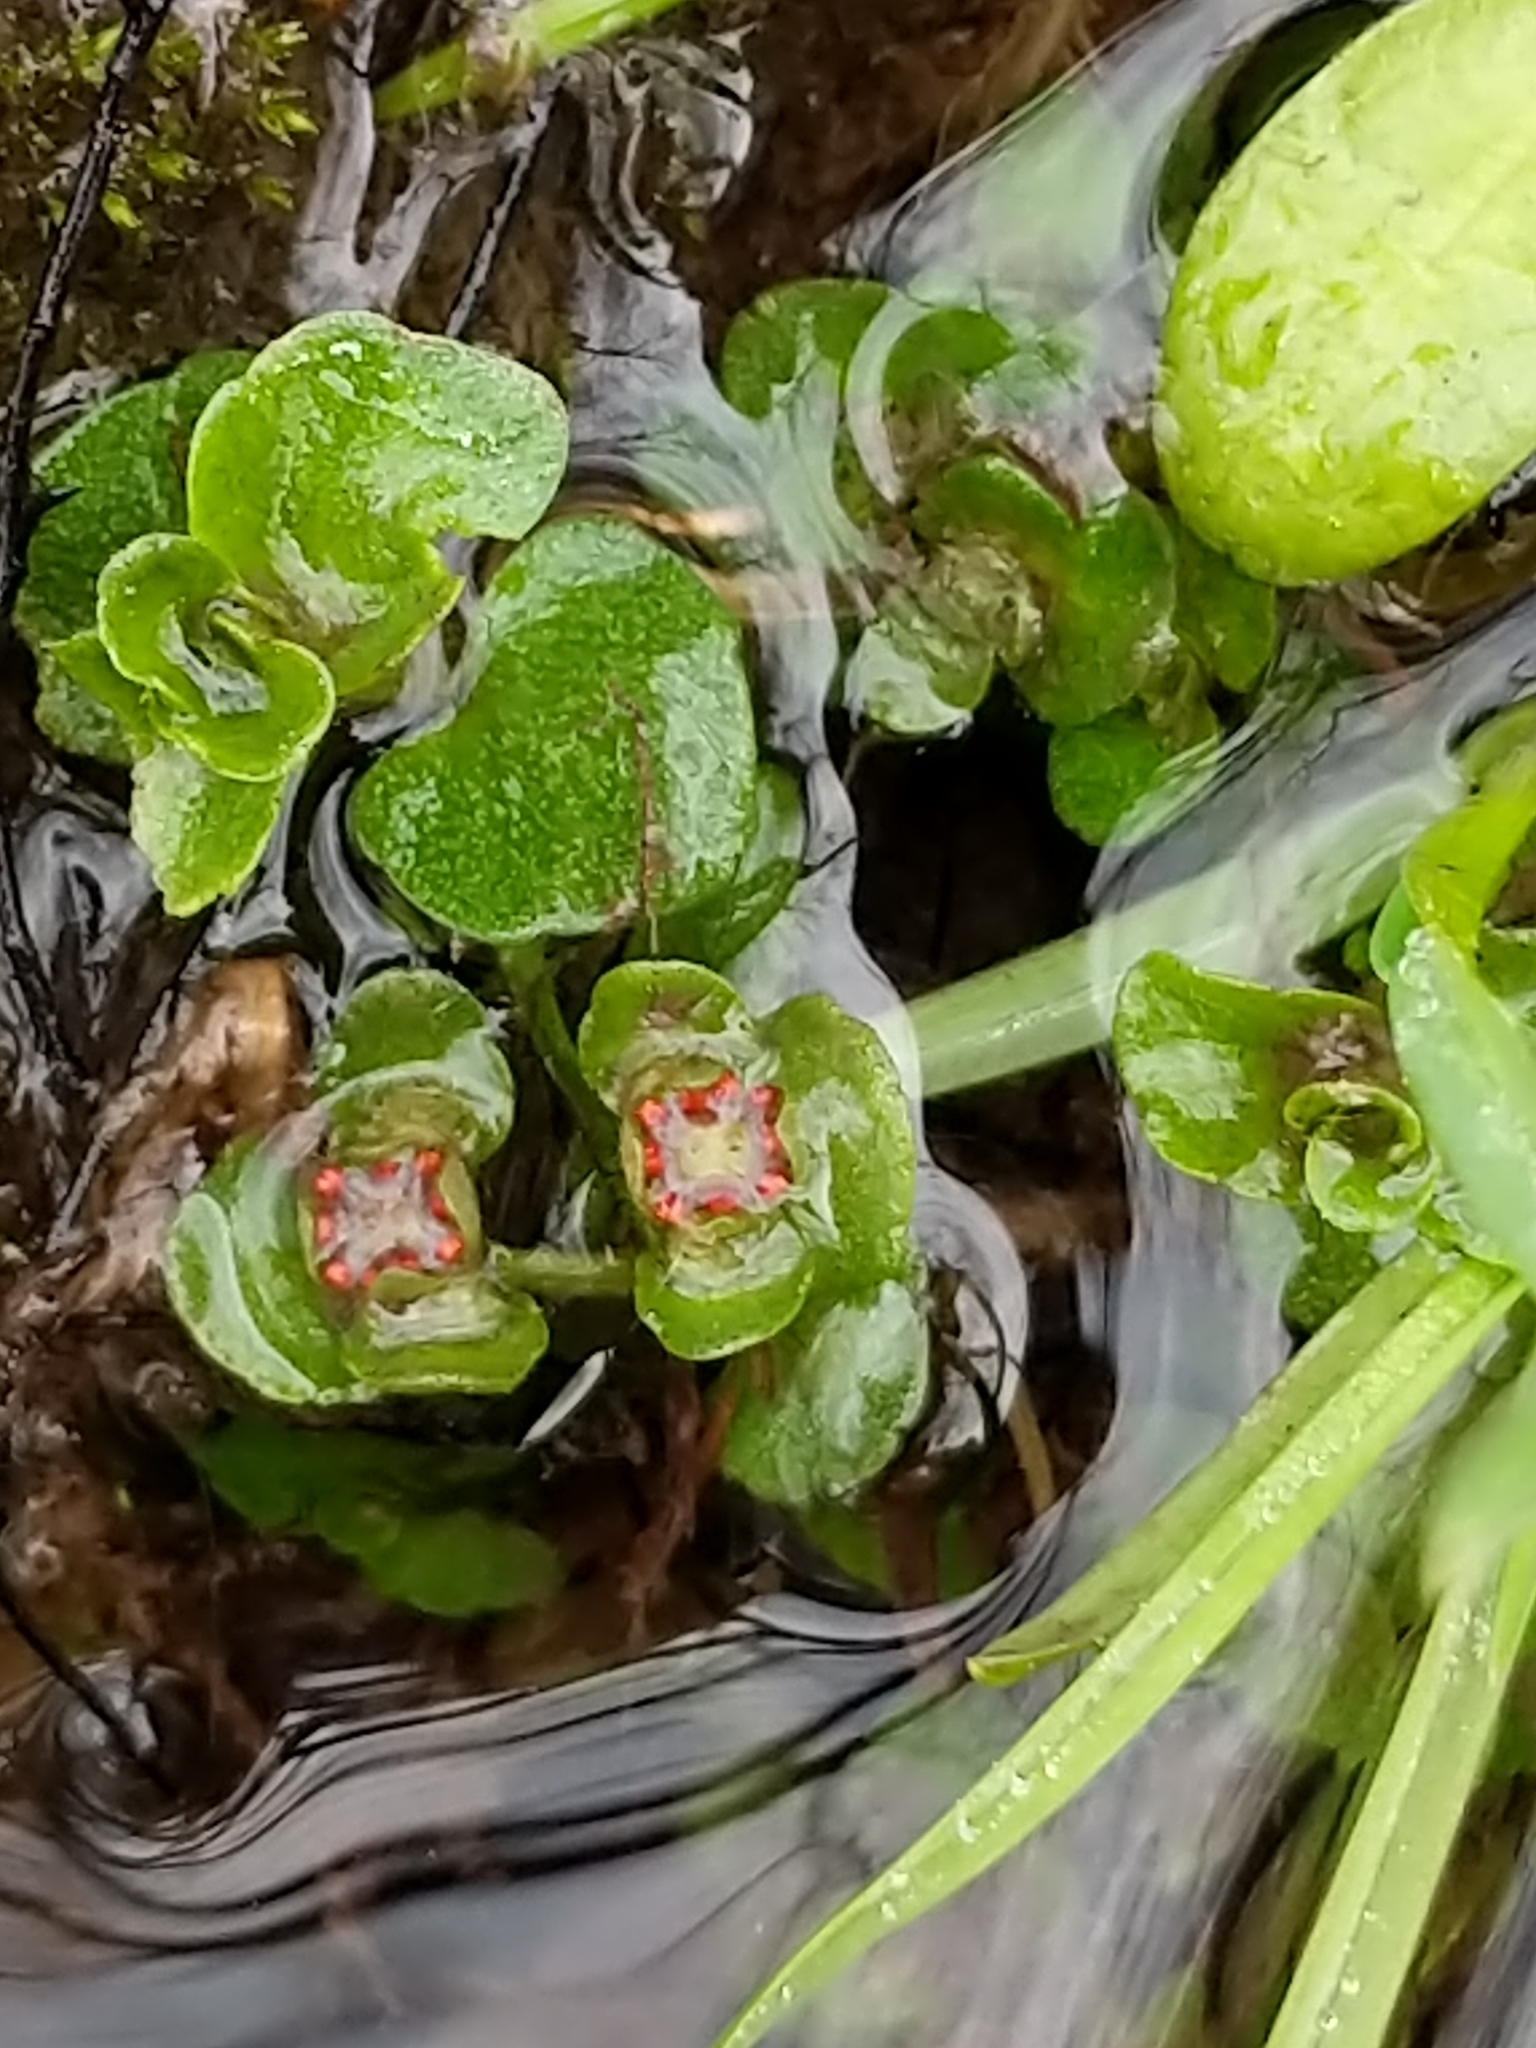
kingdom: Plantae
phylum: Tracheophyta
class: Magnoliopsida
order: Saxifragales
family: Saxifragaceae
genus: Chrysosplenium
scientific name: Chrysosplenium americanum
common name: American golden-saxifrage
